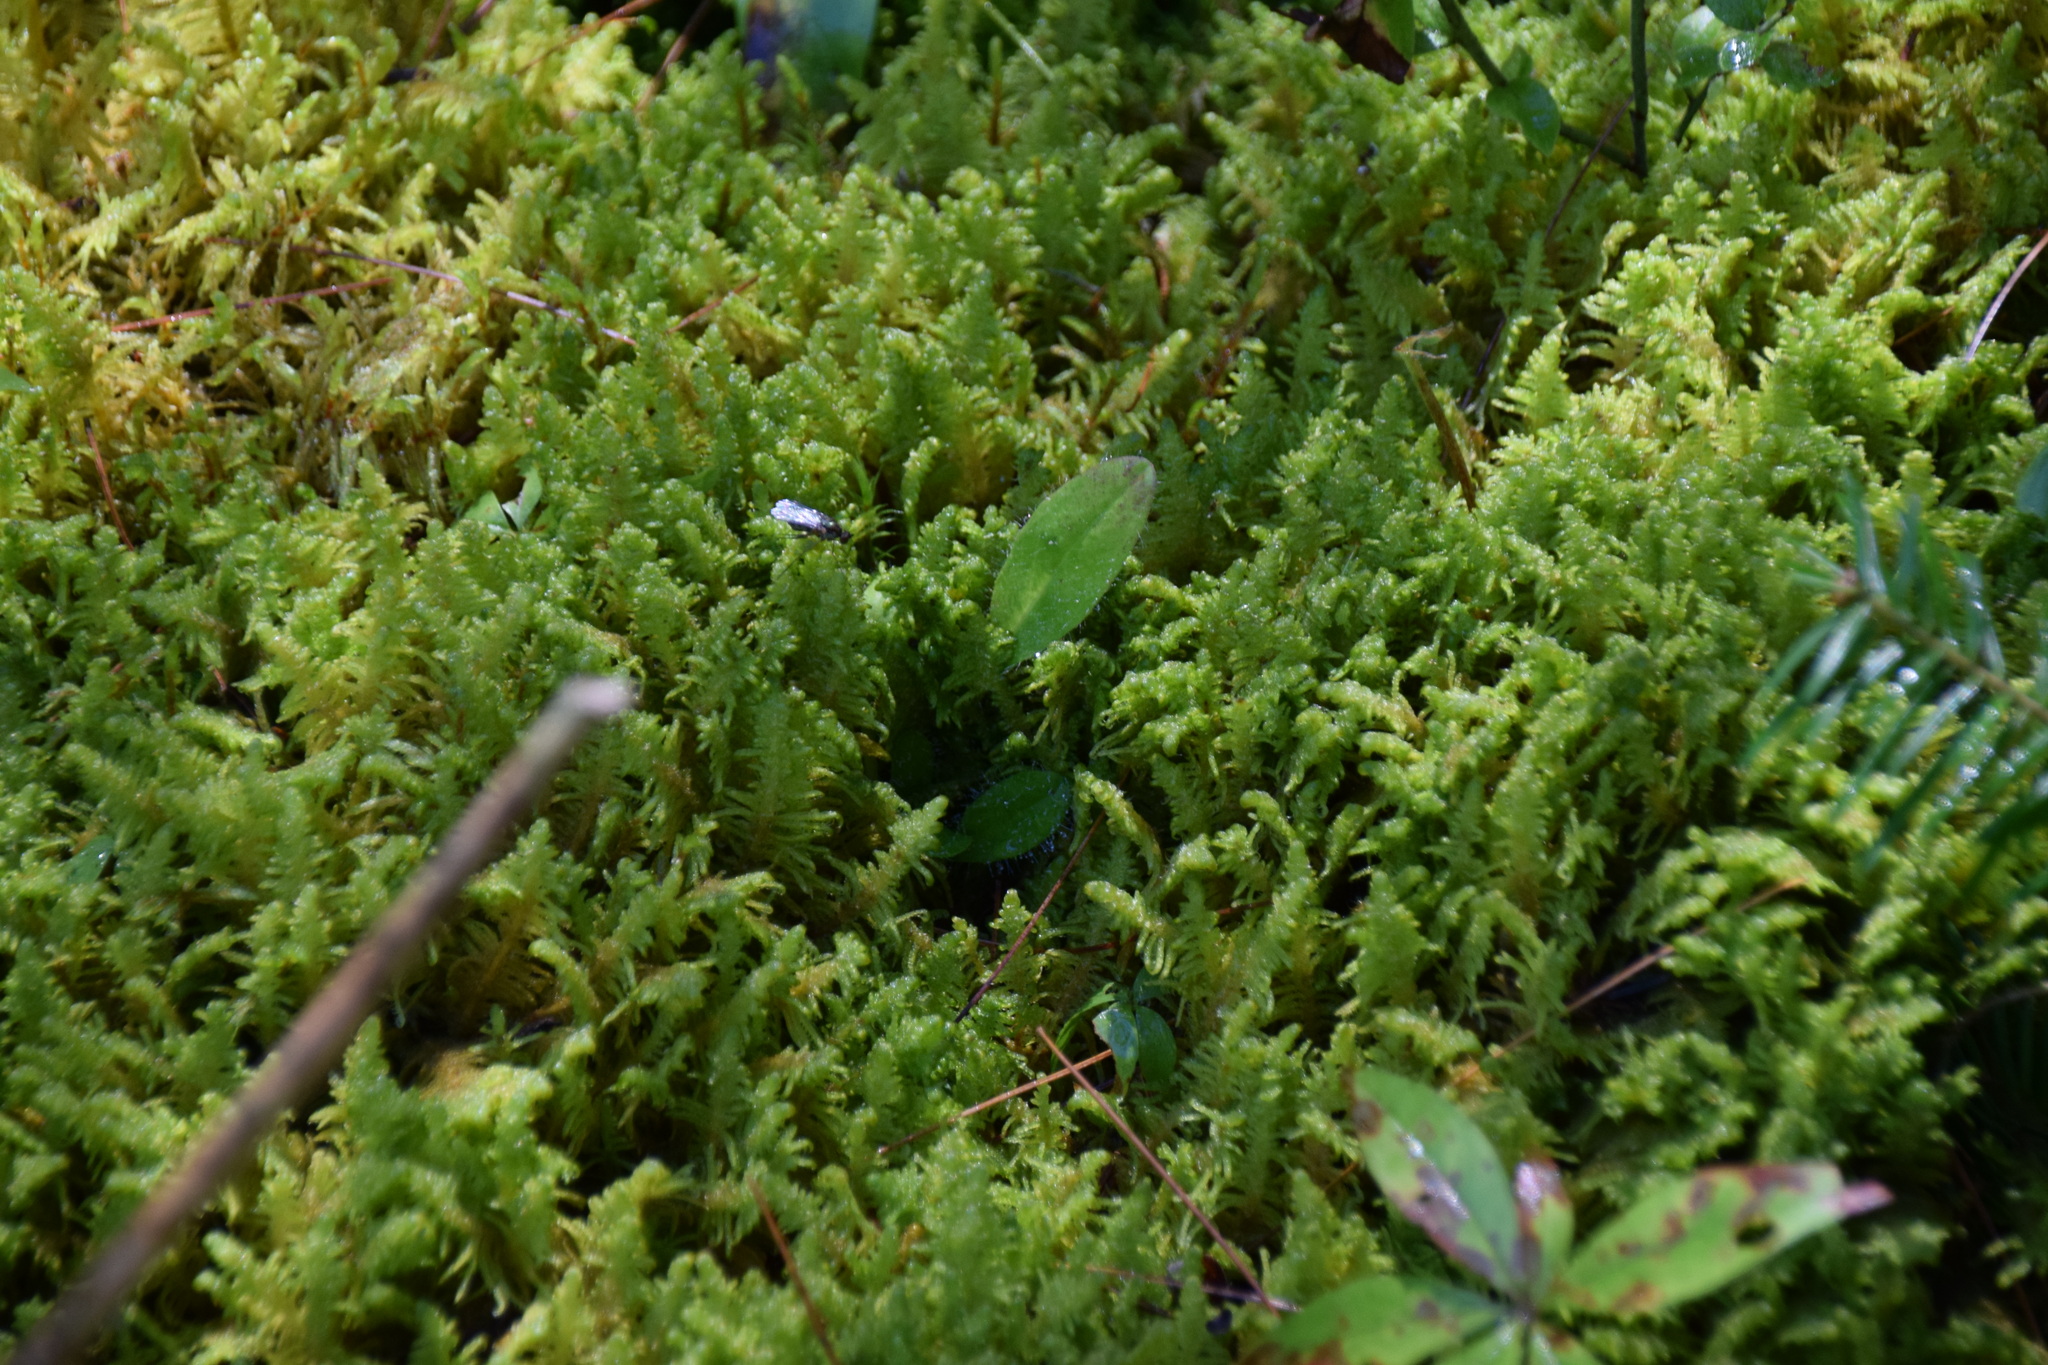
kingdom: Plantae
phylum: Bryophyta
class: Bryopsida
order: Hypnales
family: Pylaisiaceae
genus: Ptilium
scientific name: Ptilium crista-castrensis
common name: Knight's plume moss
